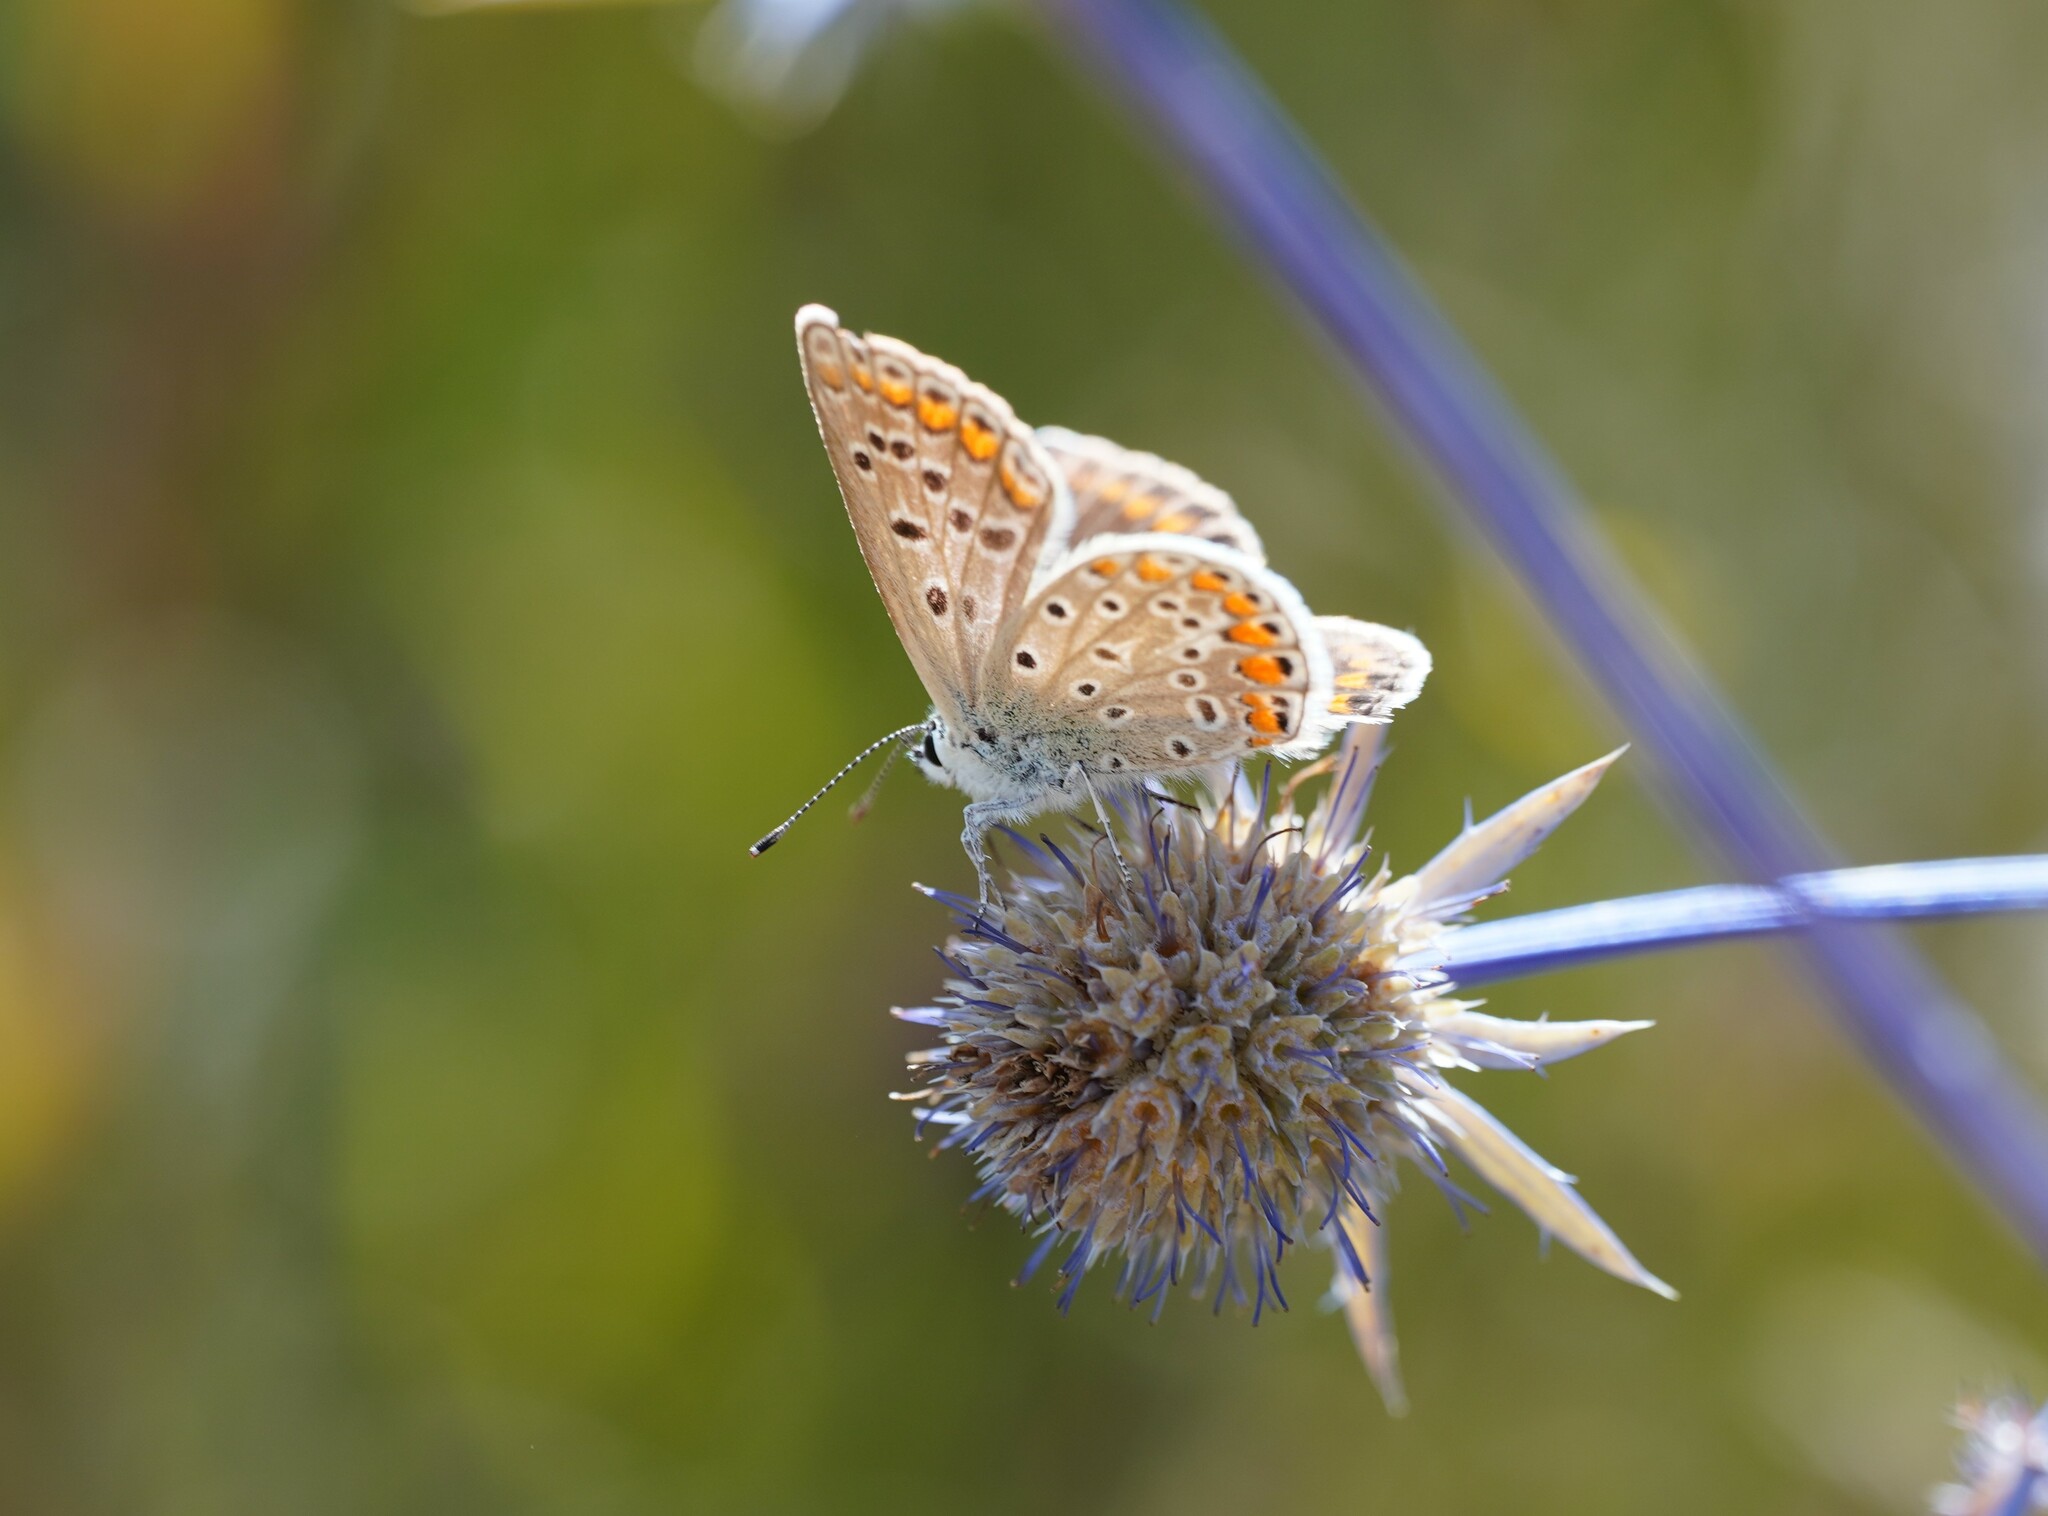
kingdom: Animalia
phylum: Arthropoda
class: Insecta
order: Lepidoptera
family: Lycaenidae
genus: Polyommatus
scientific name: Polyommatus icarus
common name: Common blue
